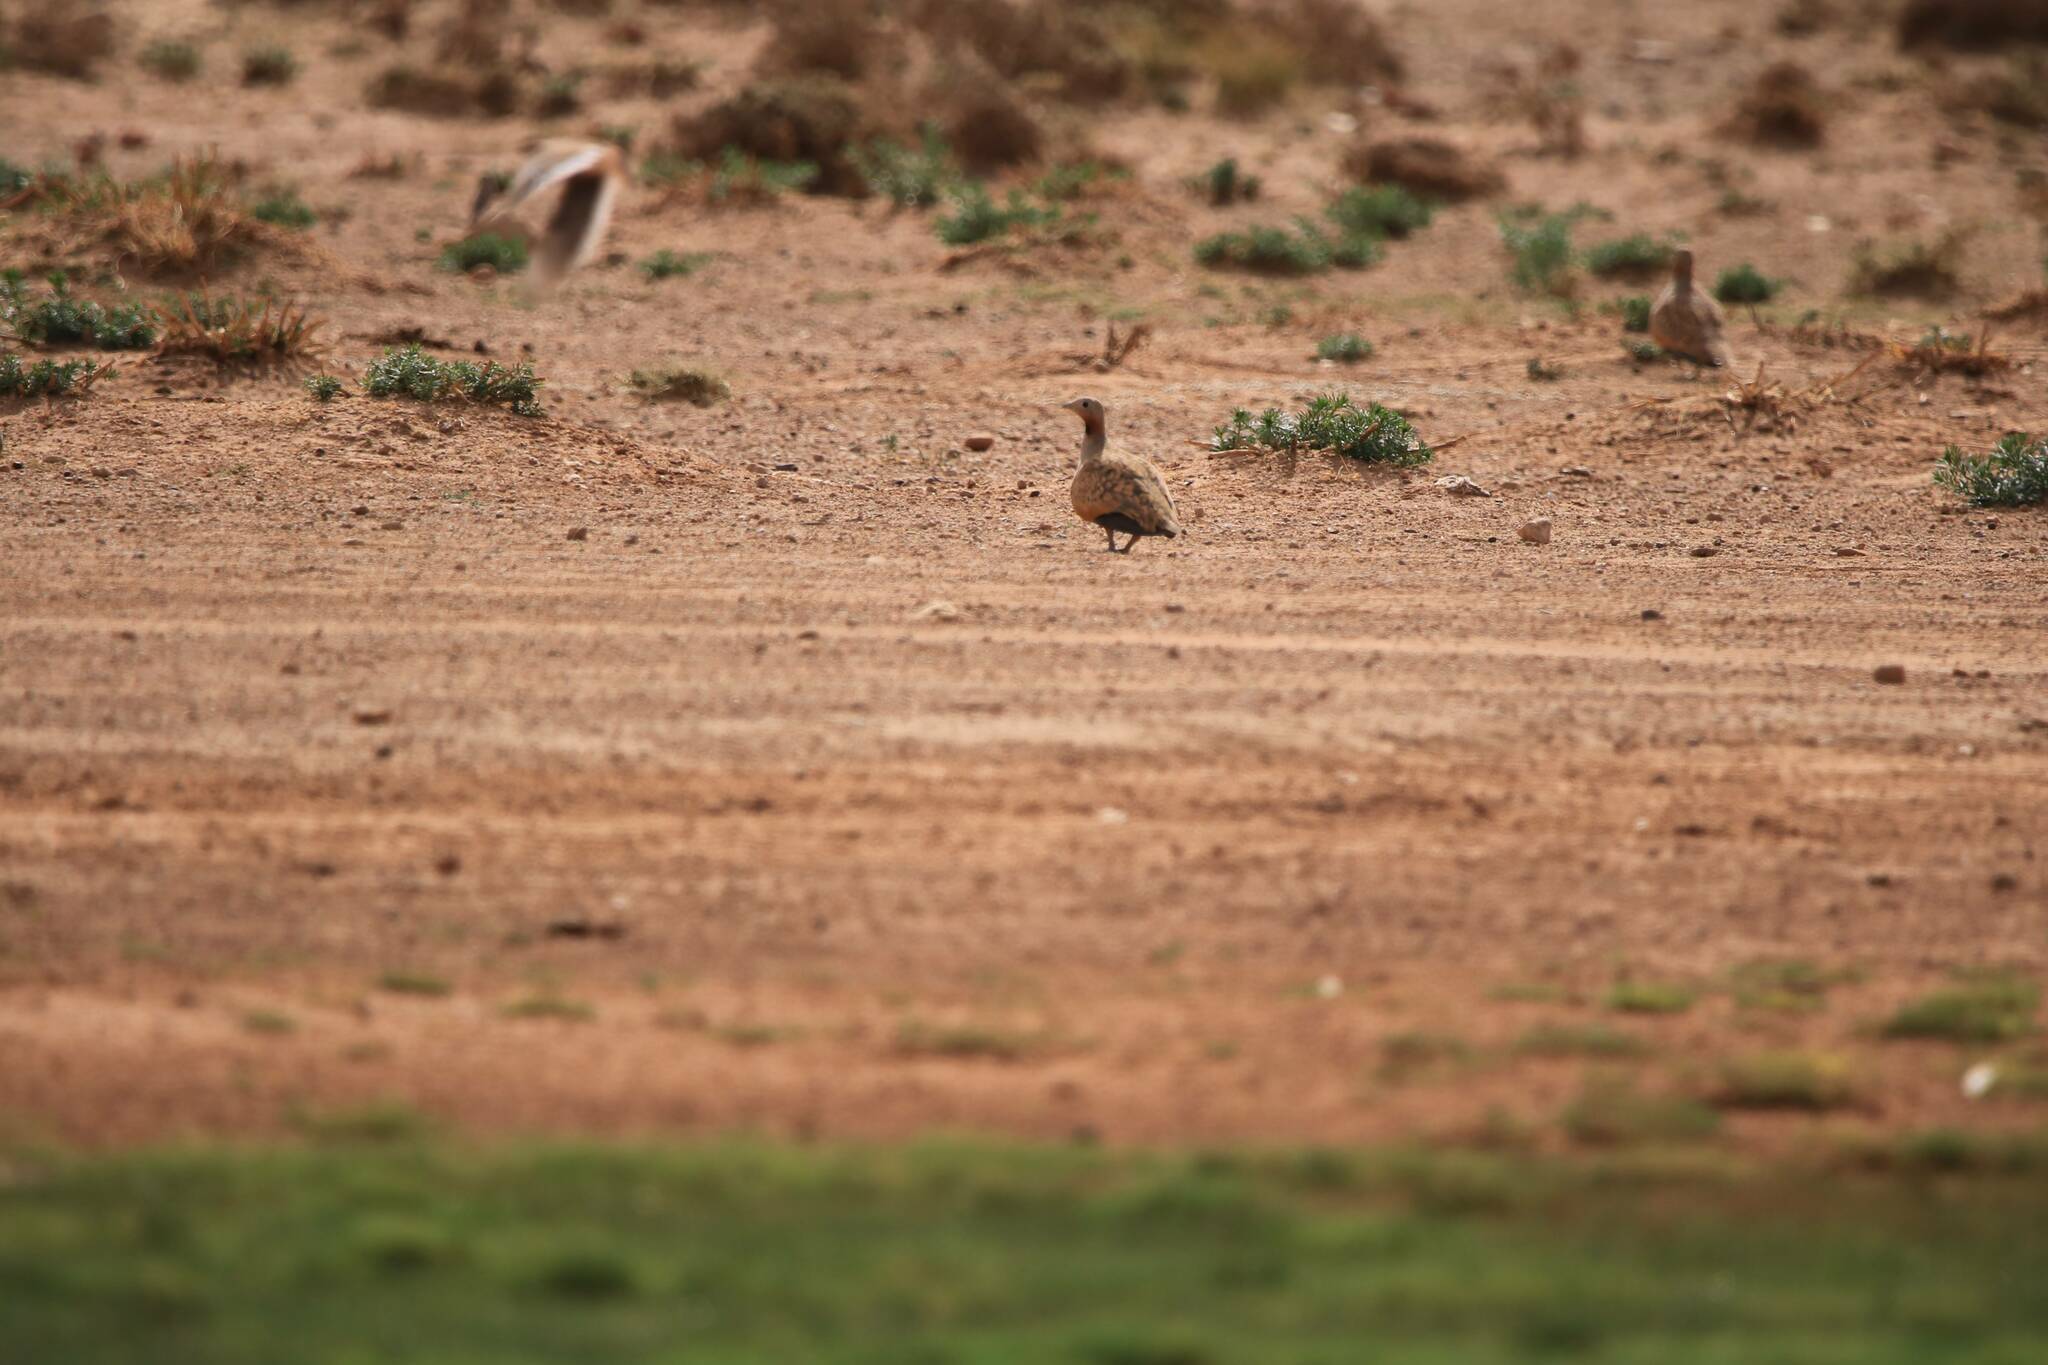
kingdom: Animalia
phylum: Chordata
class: Aves
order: Pteroclidiformes
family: Pteroclididae
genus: Pterocles
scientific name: Pterocles orientalis
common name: Black-bellied sandgrouse
